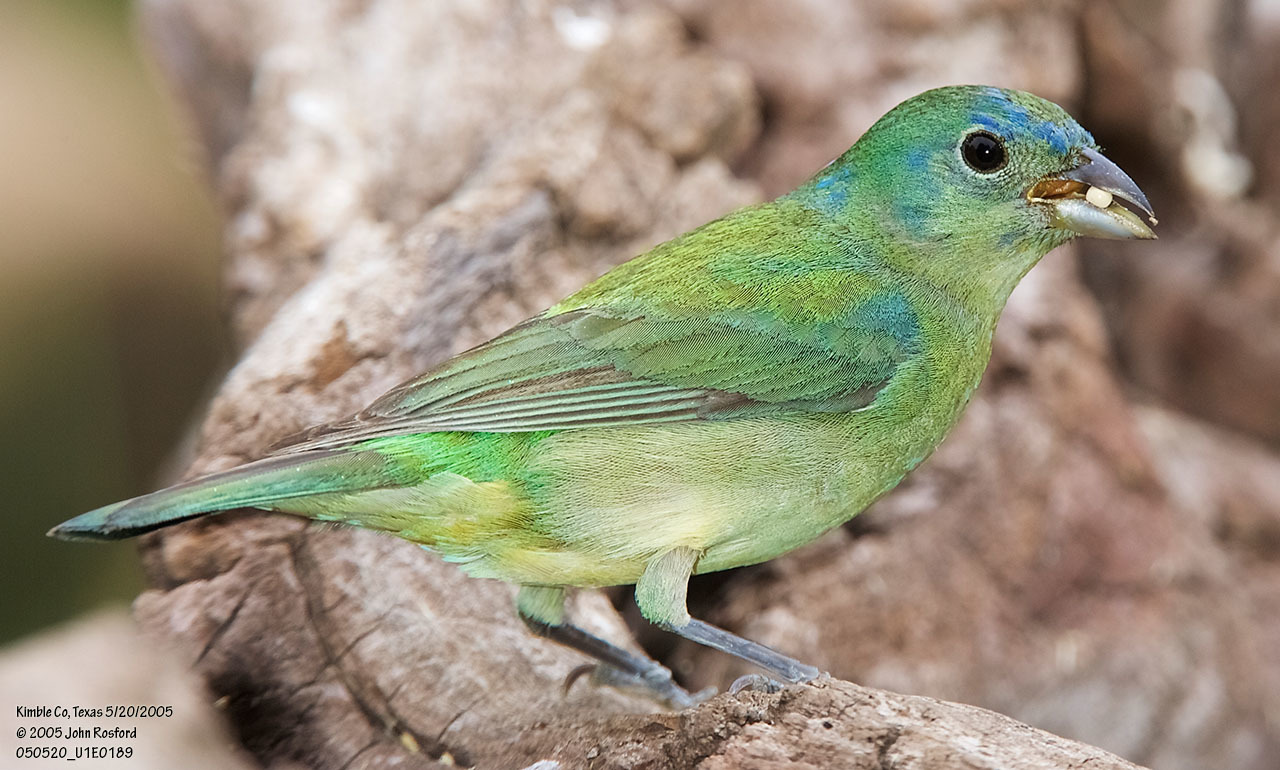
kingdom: Animalia
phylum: Chordata
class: Aves
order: Passeriformes
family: Cardinalidae
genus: Passerina
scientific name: Passerina ciris
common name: Painted bunting
